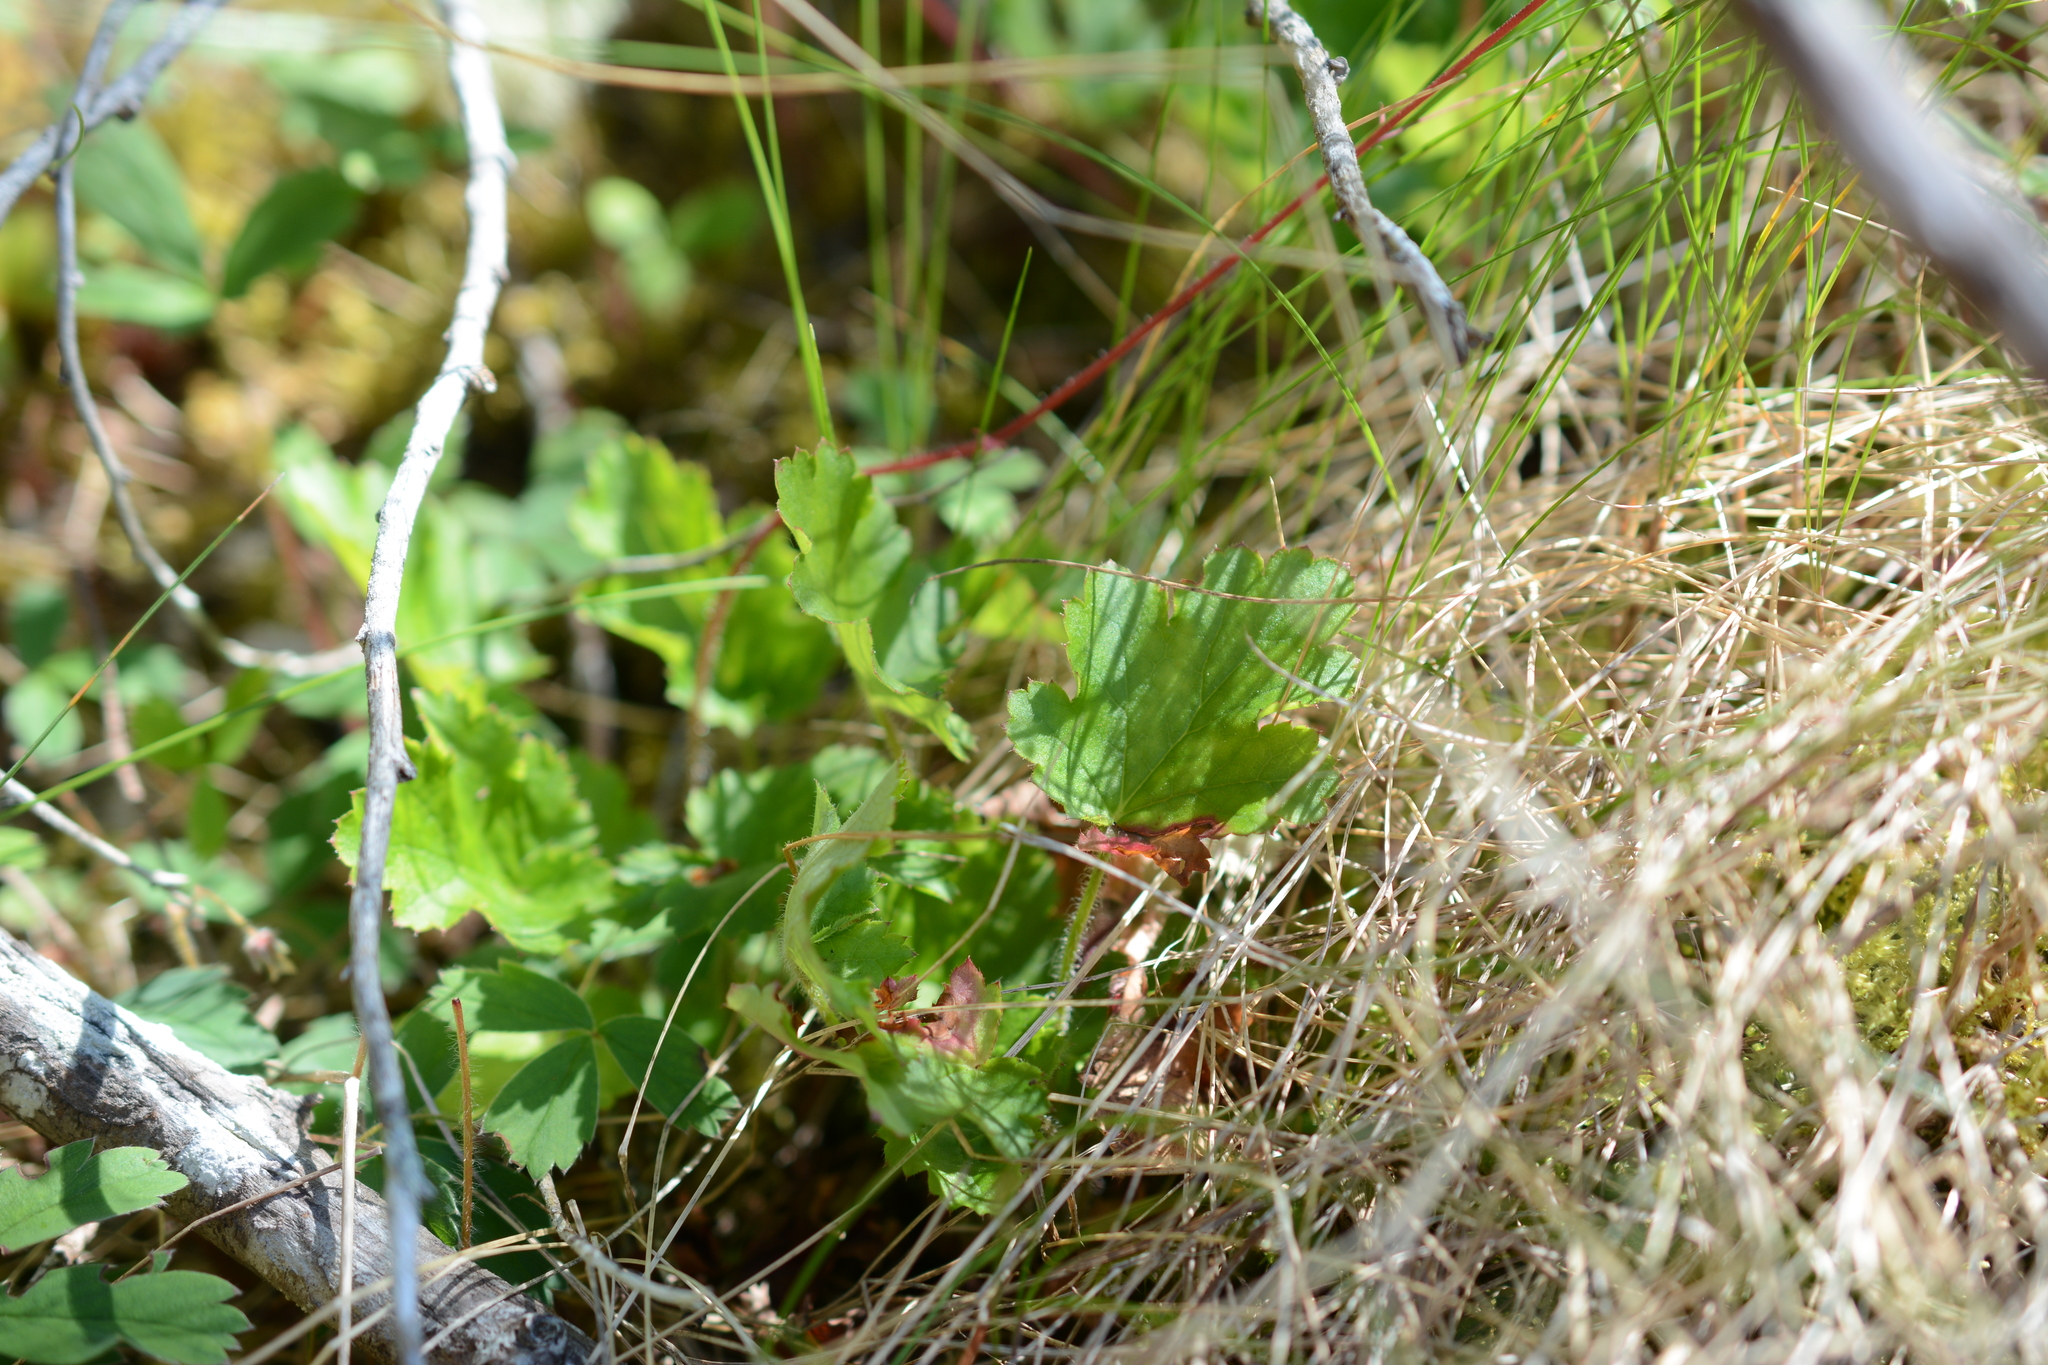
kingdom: Plantae
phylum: Tracheophyta
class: Magnoliopsida
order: Saxifragales
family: Saxifragaceae
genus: Heuchera
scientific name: Heuchera micrantha
